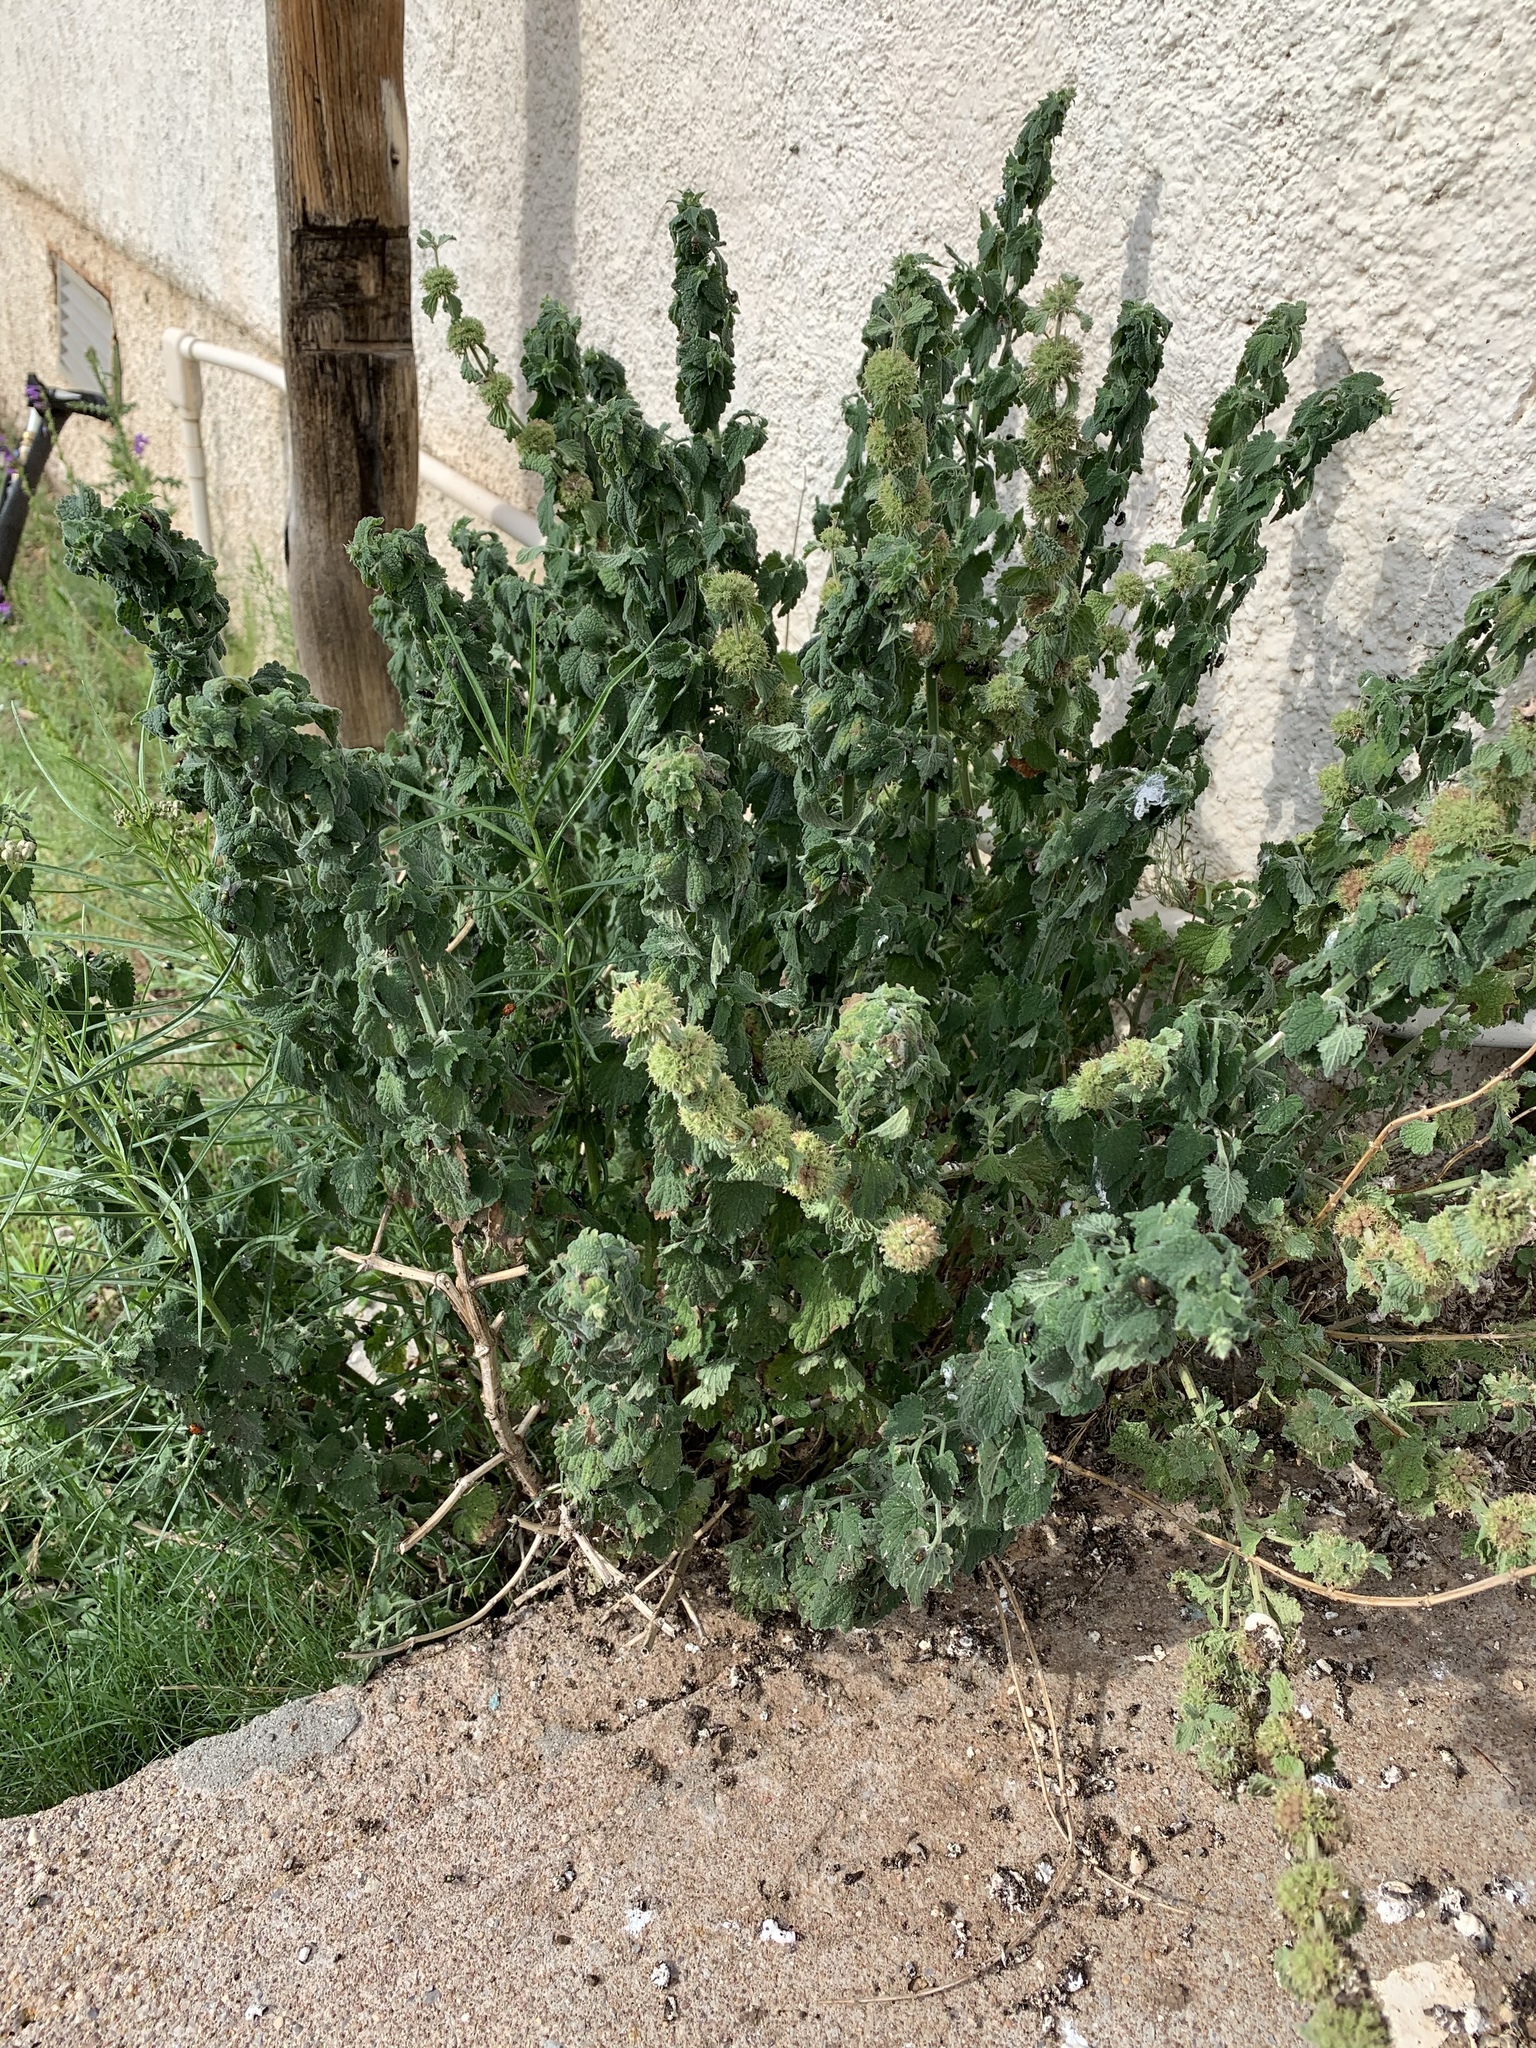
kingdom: Plantae
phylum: Tracheophyta
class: Magnoliopsida
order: Lamiales
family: Lamiaceae
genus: Marrubium
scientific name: Marrubium vulgare
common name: Horehound
